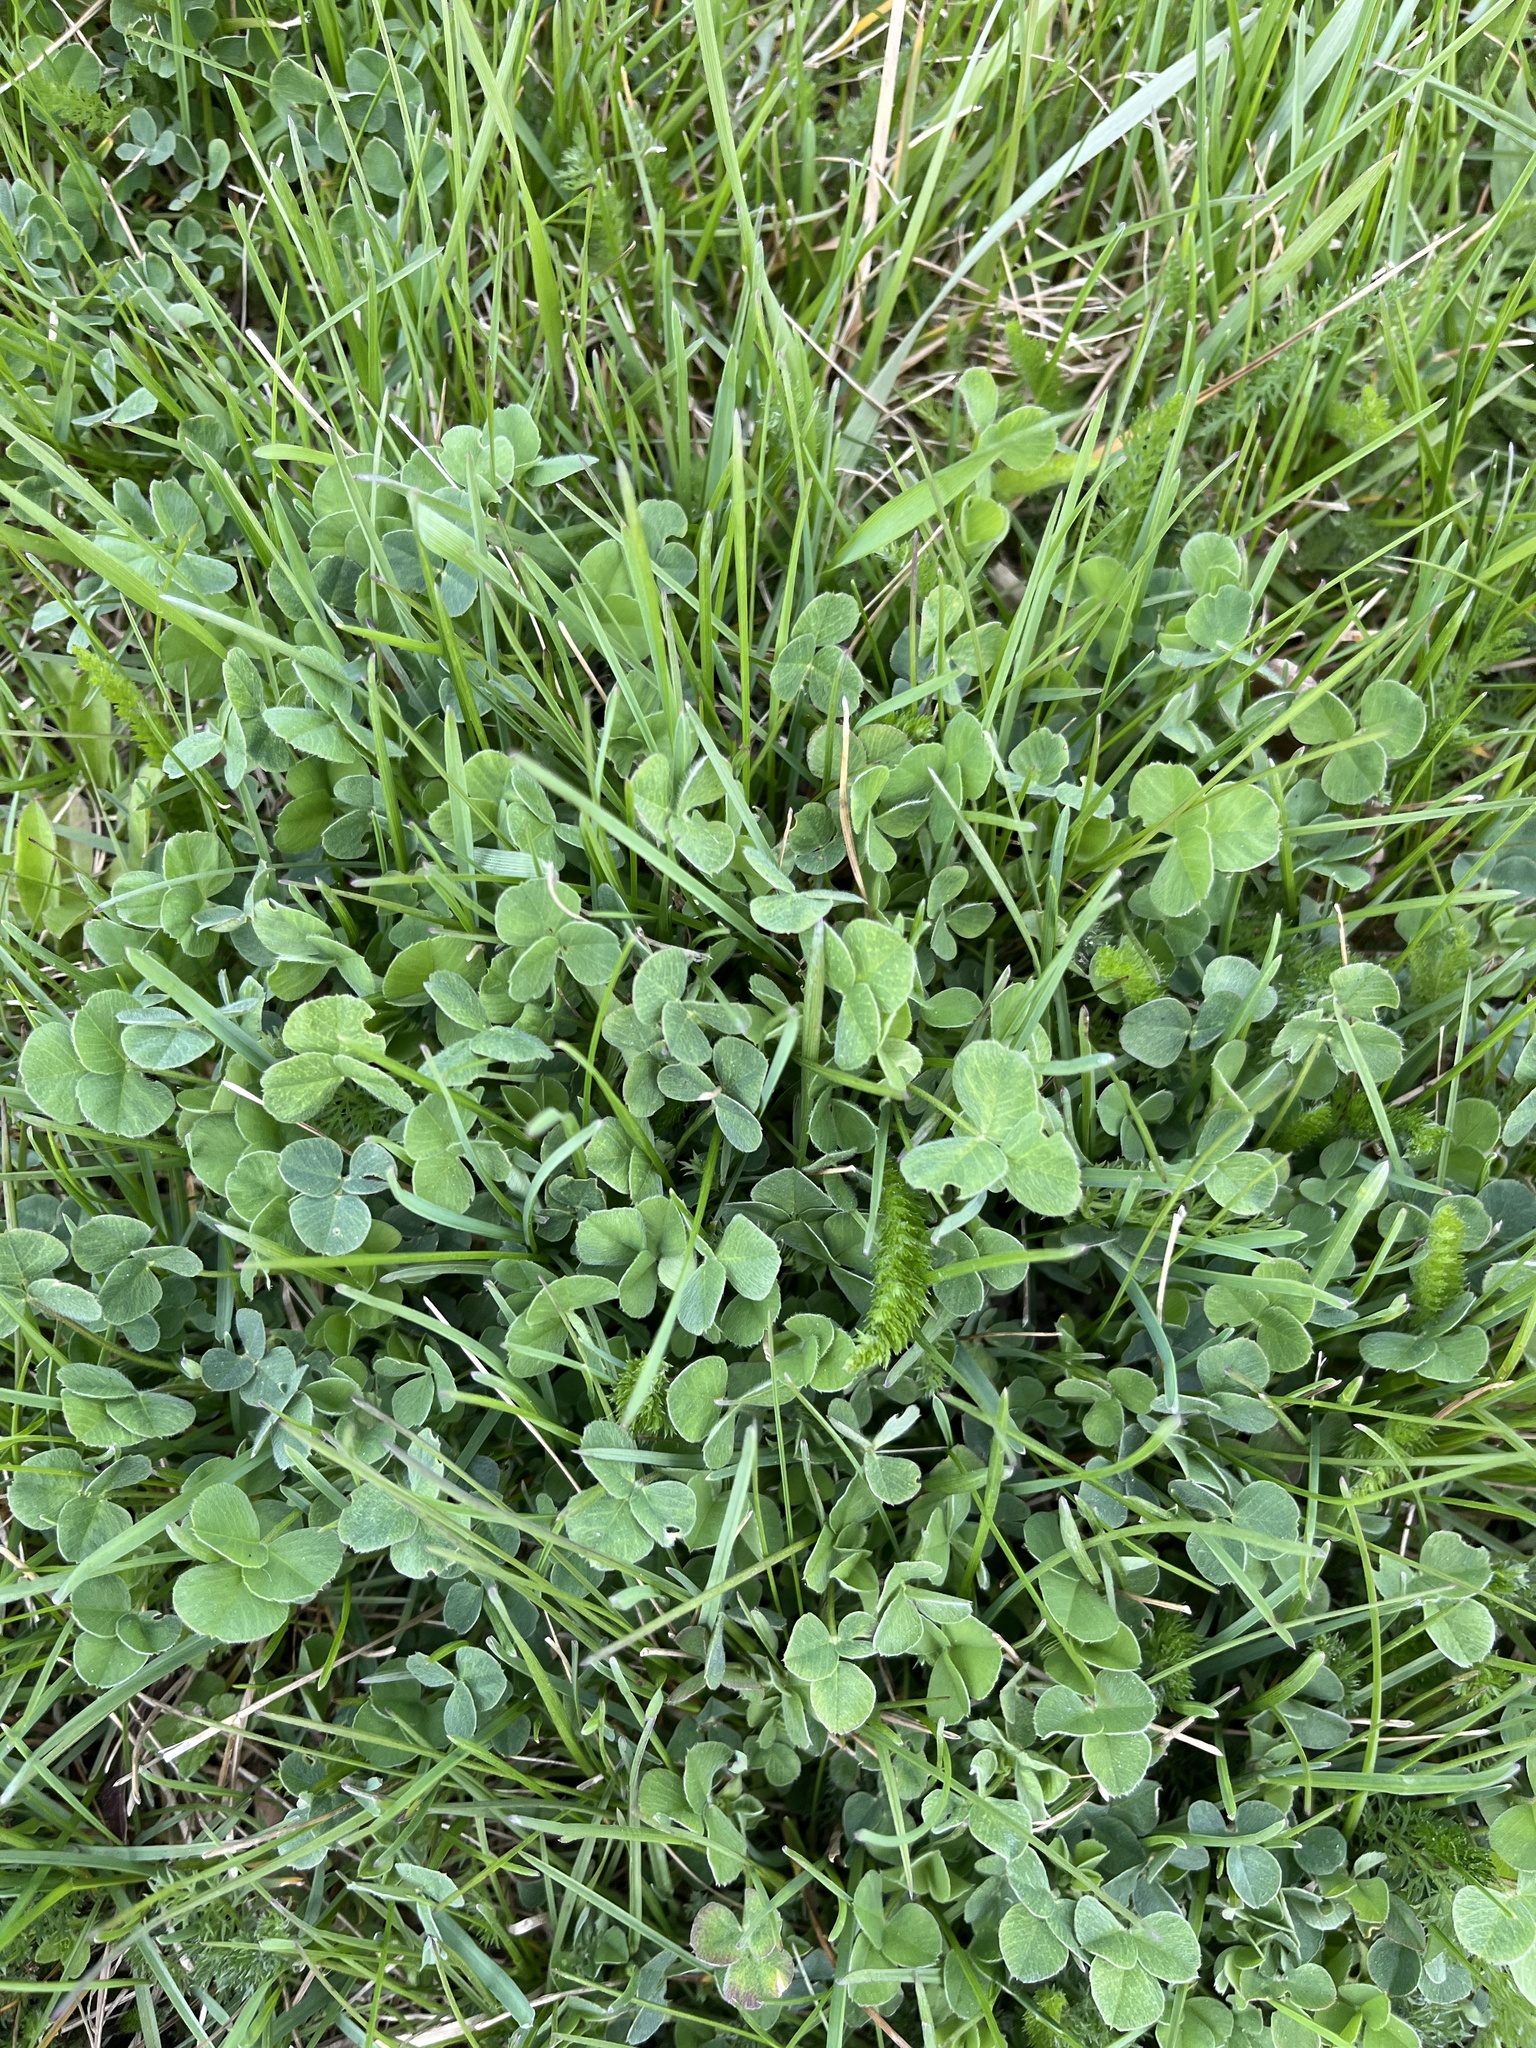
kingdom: Plantae
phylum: Tracheophyta
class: Magnoliopsida
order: Fabales
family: Fabaceae
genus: Medicago
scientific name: Medicago lupulina
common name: Black medick
